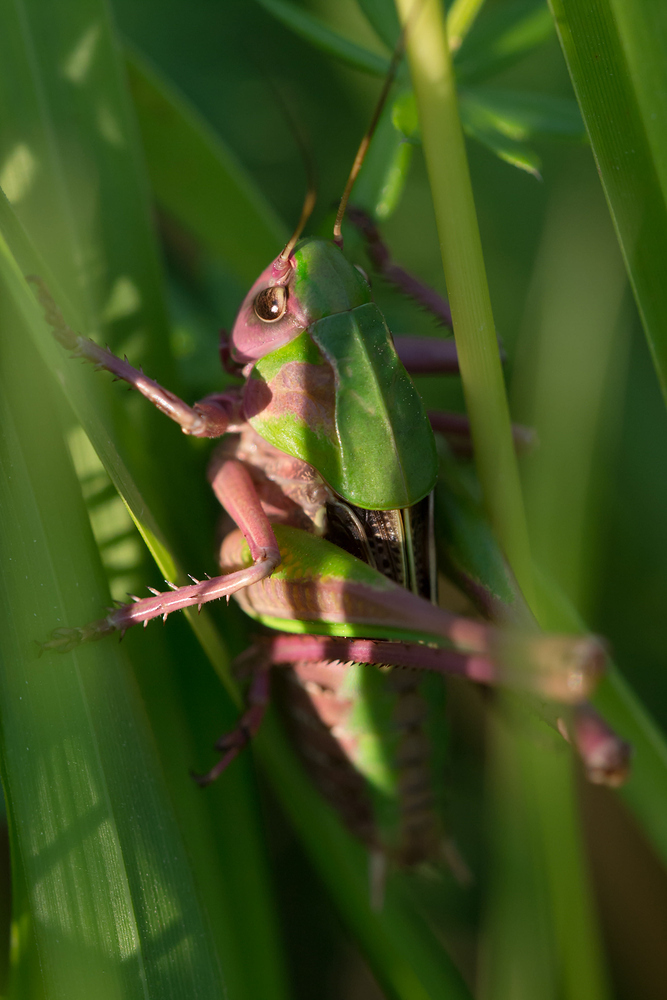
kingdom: Animalia
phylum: Arthropoda
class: Insecta
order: Orthoptera
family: Tettigoniidae
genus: Decticus
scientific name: Decticus verrucivorus
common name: Wart-biter
